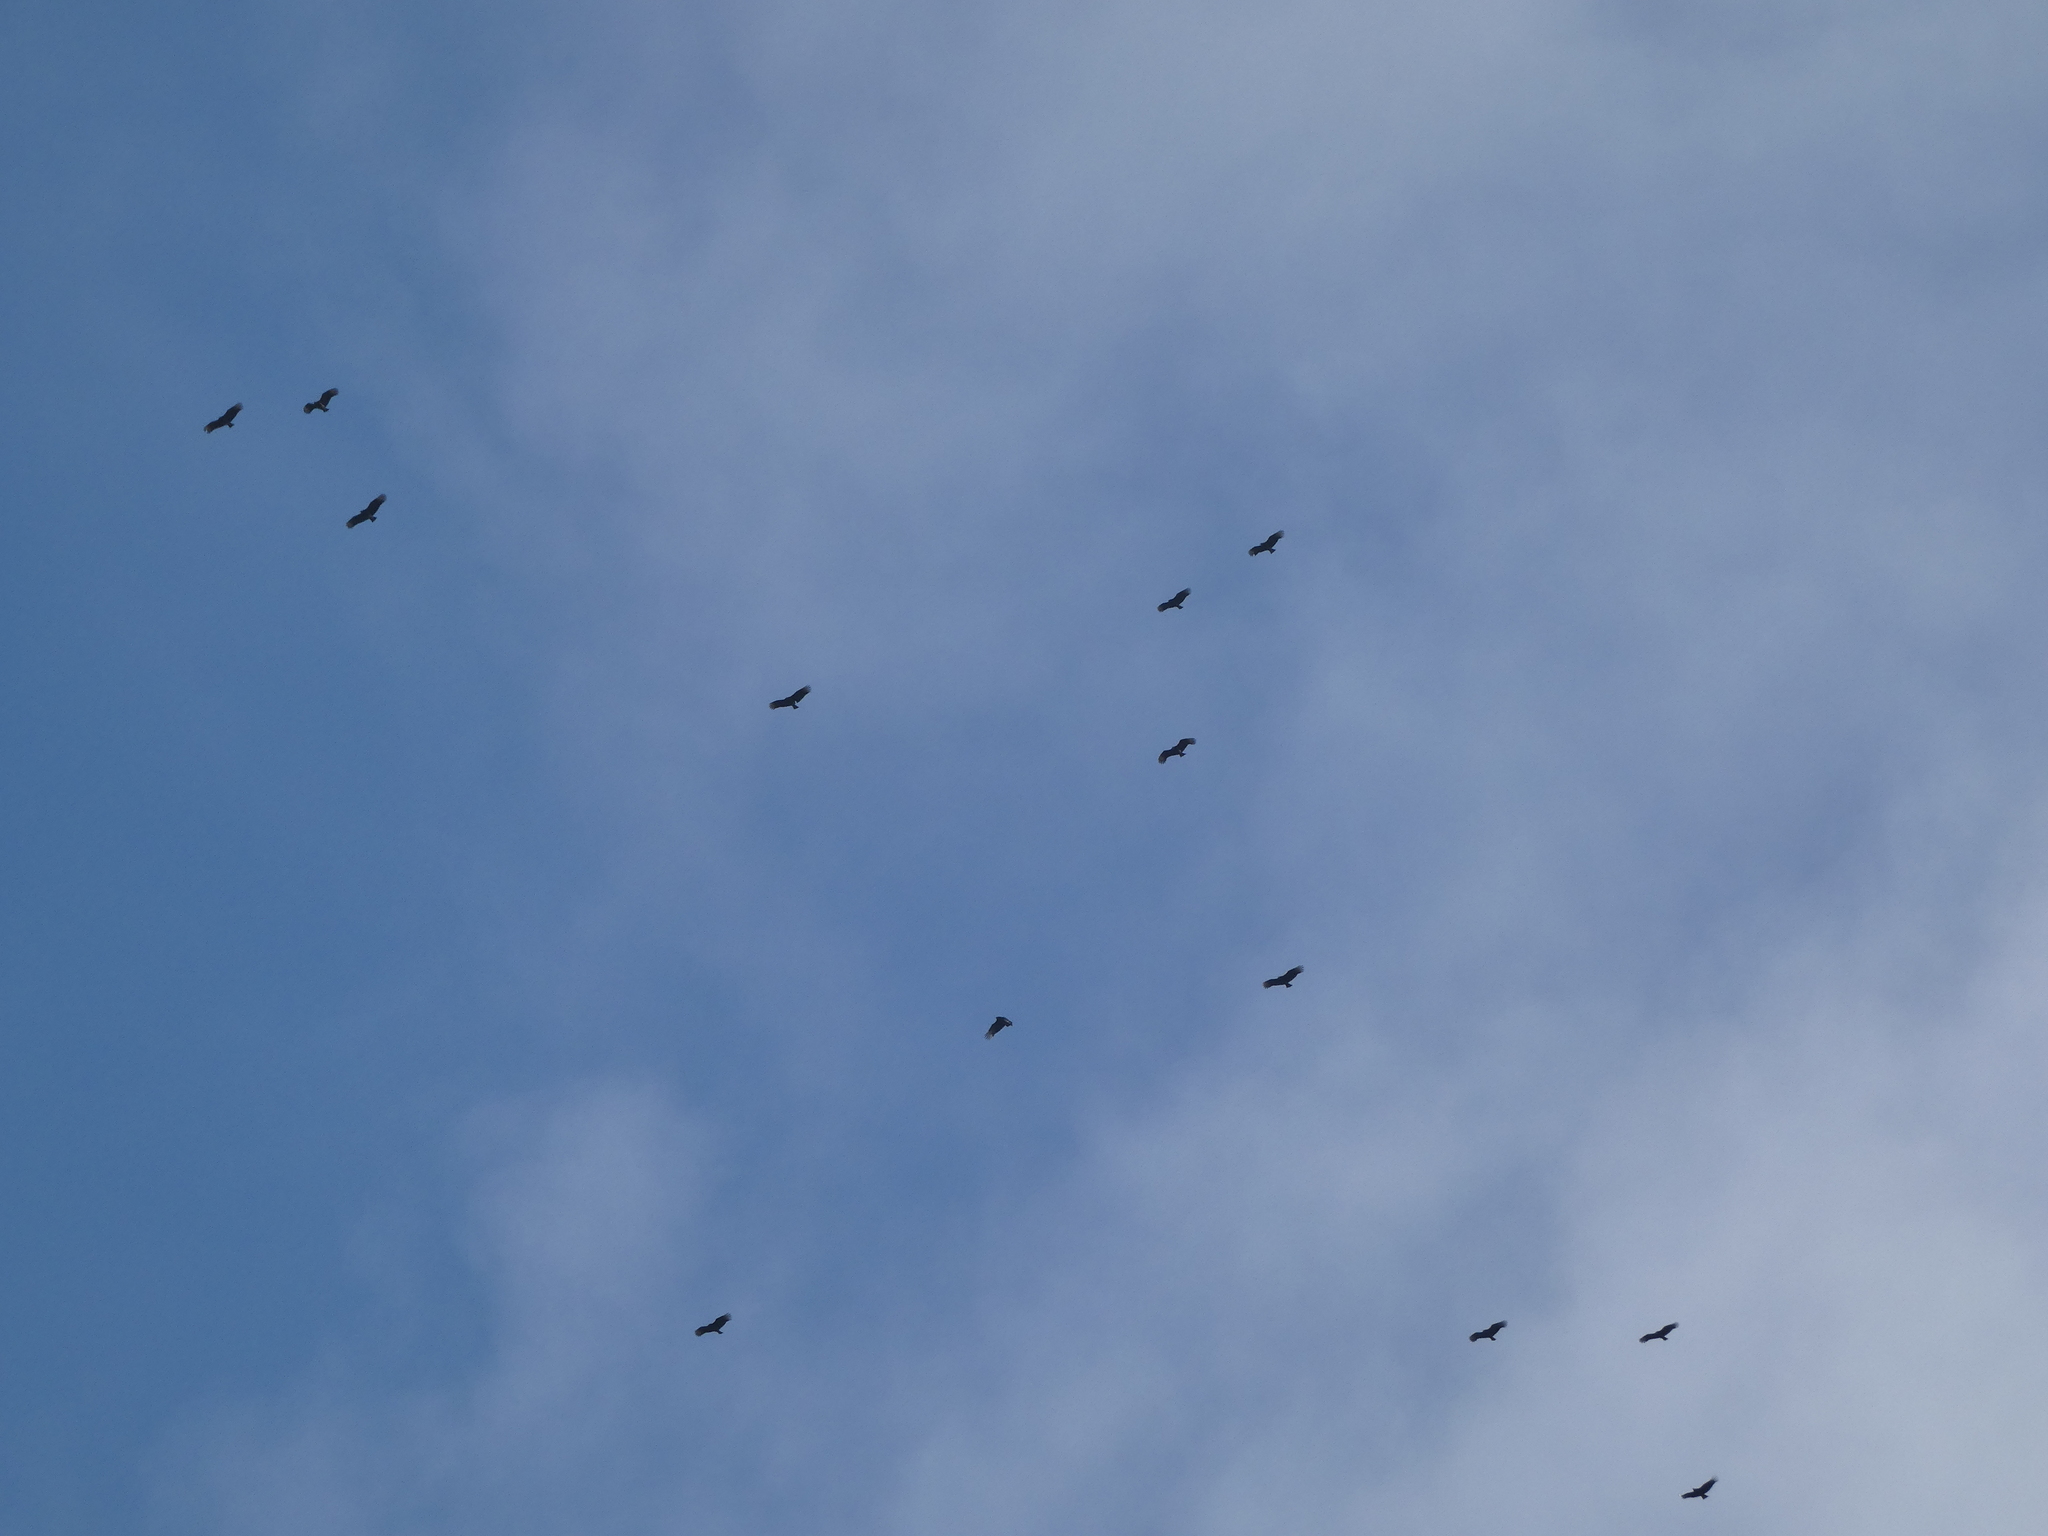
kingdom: Animalia
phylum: Chordata
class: Aves
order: Accipitriformes
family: Cathartidae
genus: Coragyps
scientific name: Coragyps atratus
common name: Black vulture
